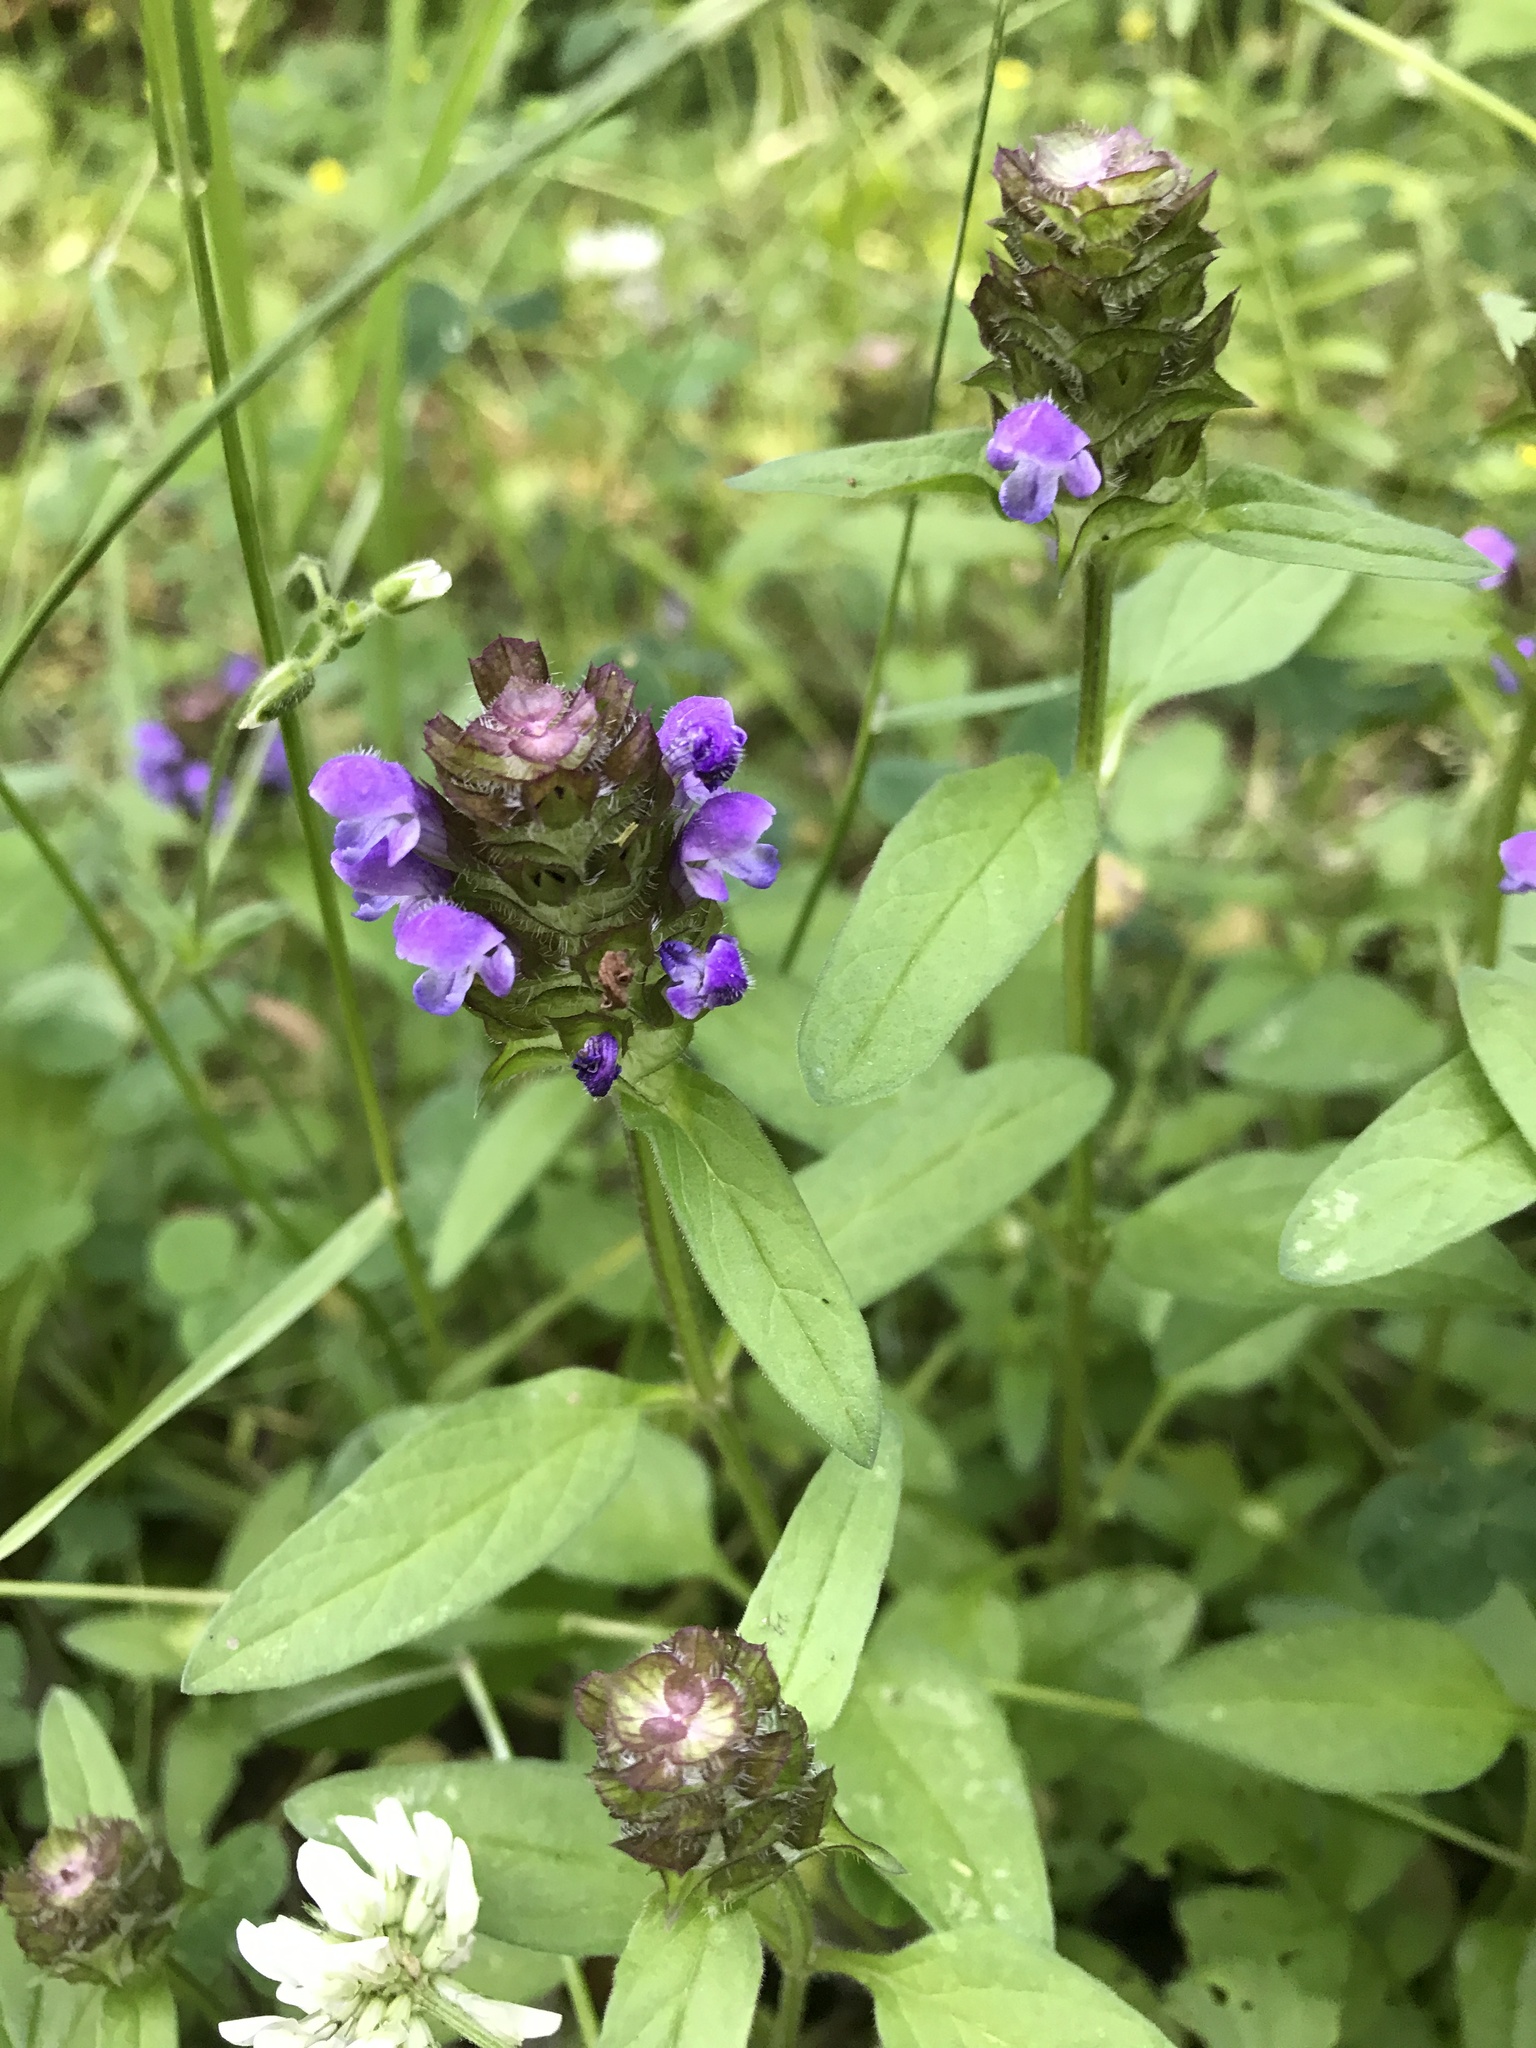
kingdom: Plantae
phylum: Tracheophyta
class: Magnoliopsida
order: Lamiales
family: Lamiaceae
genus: Prunella
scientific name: Prunella vulgaris
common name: Heal-all
